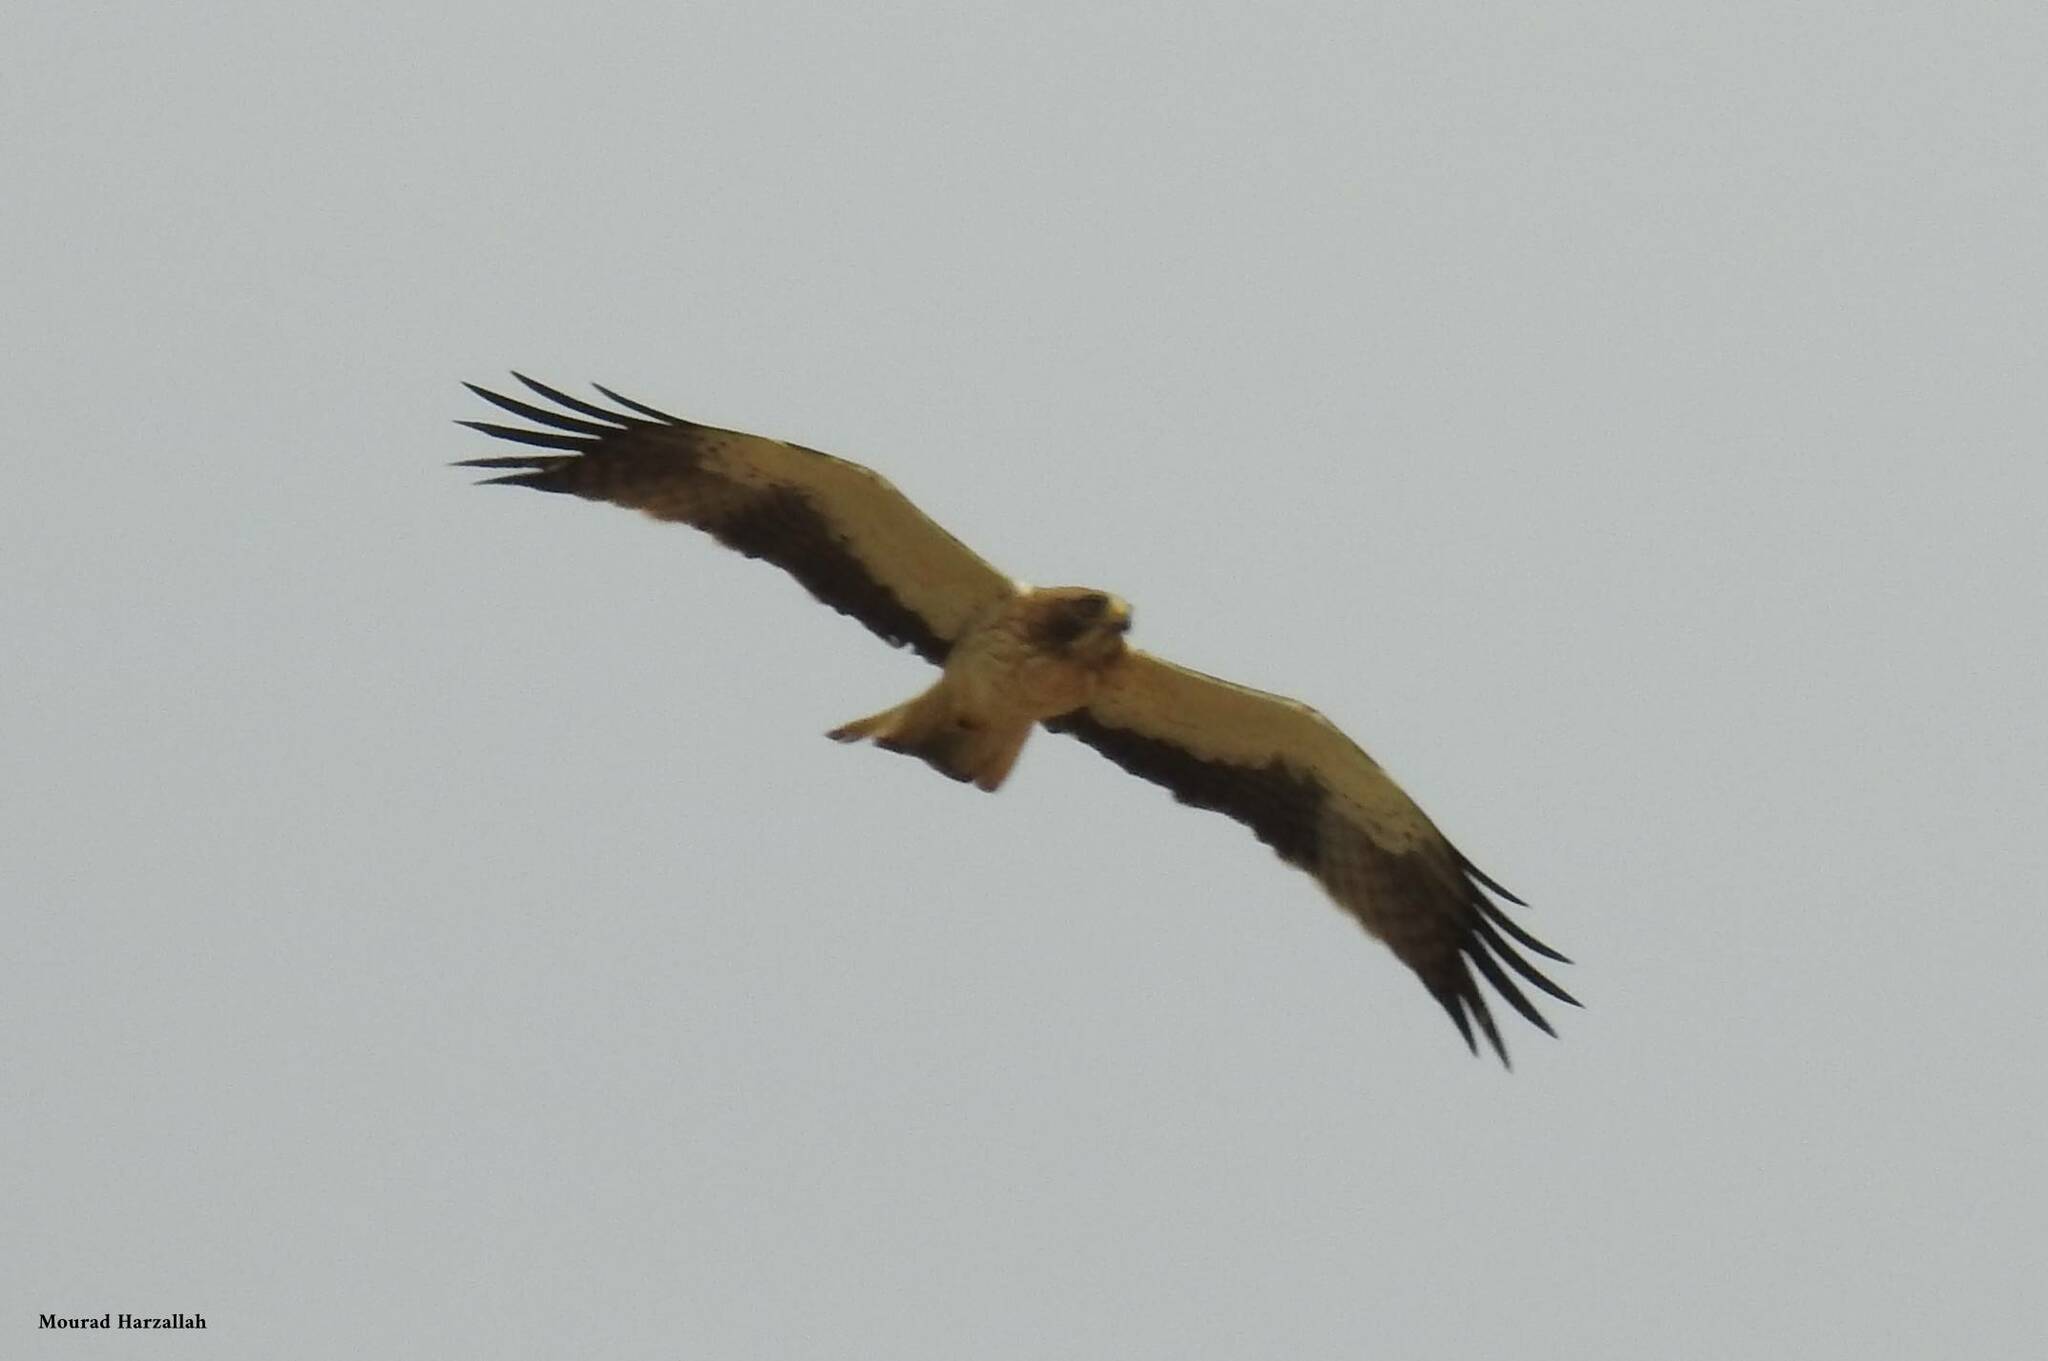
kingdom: Animalia
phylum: Chordata
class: Aves
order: Accipitriformes
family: Accipitridae
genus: Hieraaetus
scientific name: Hieraaetus pennatus
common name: Booted eagle
